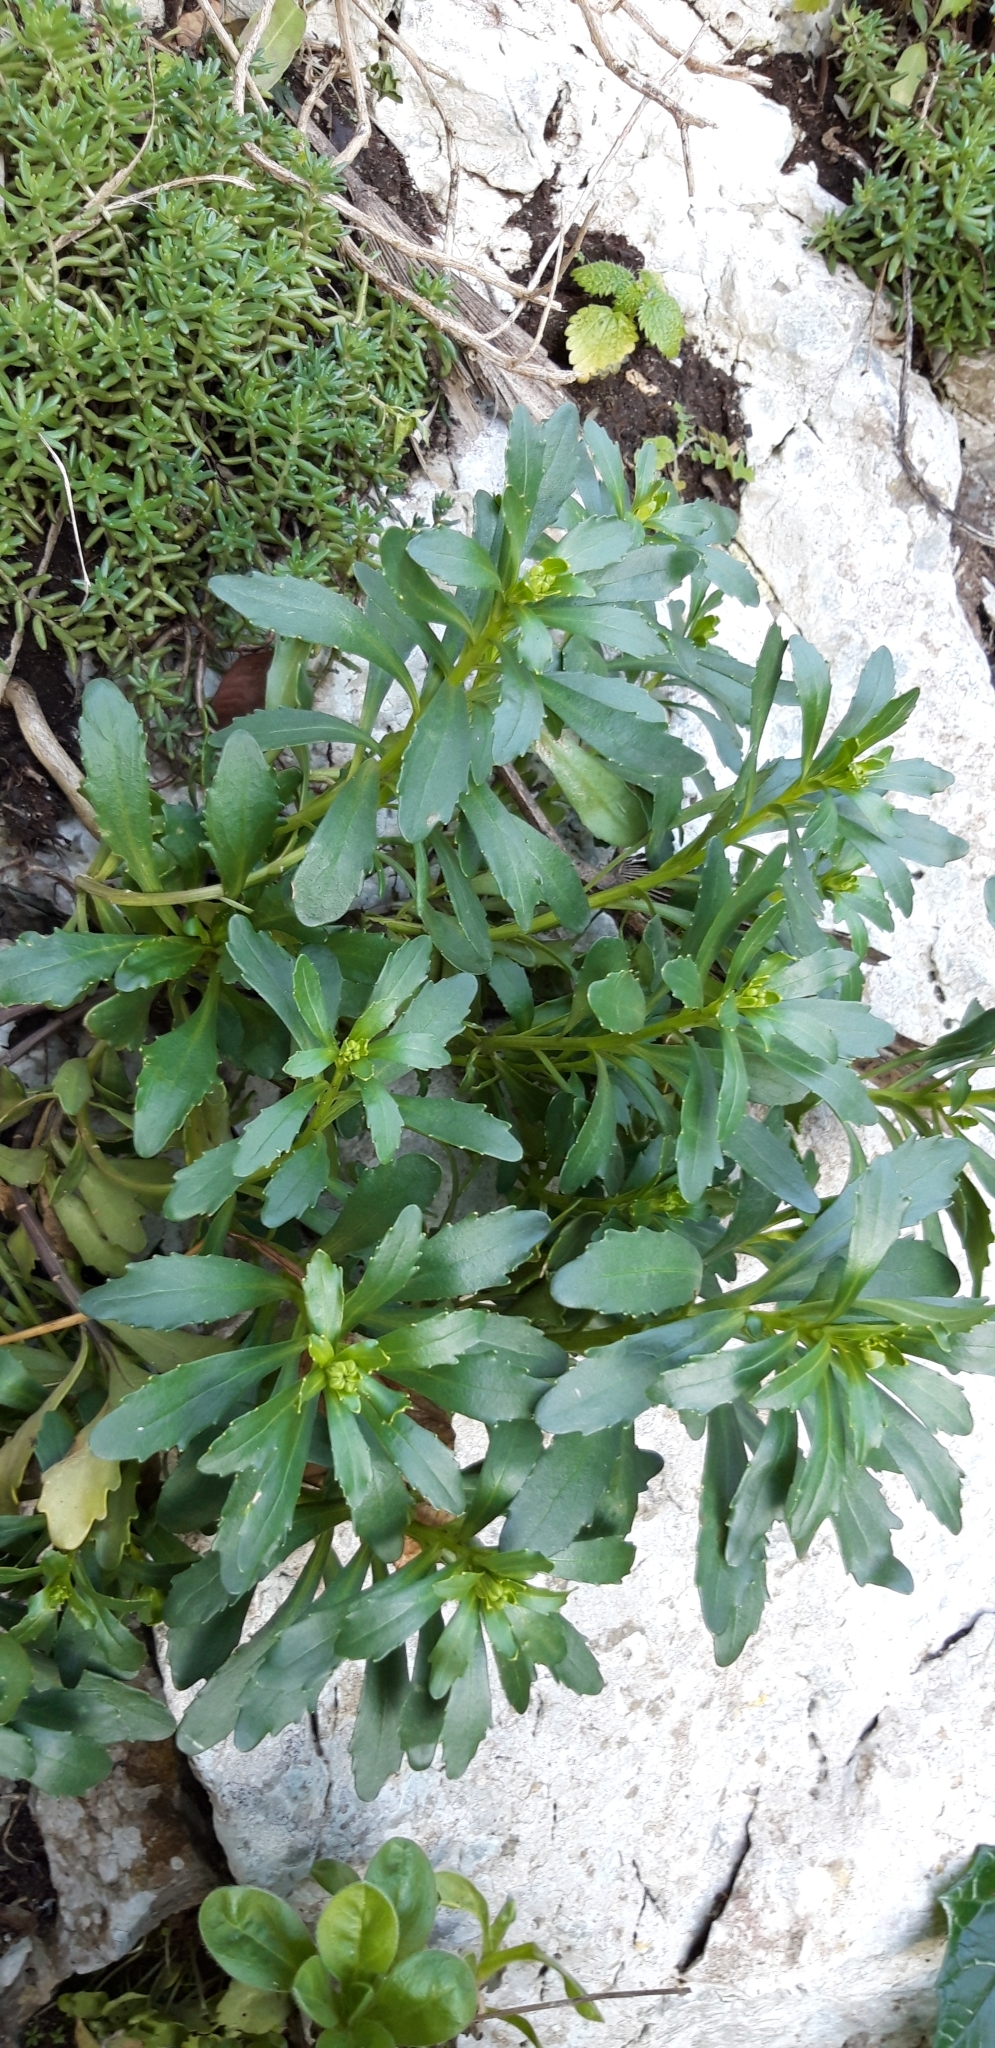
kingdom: Plantae
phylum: Tracheophyta
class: Magnoliopsida
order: Brassicales
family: Brassicaceae
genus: Iberis
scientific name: Iberis gibraltarica
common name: Gibraltar candytuft
